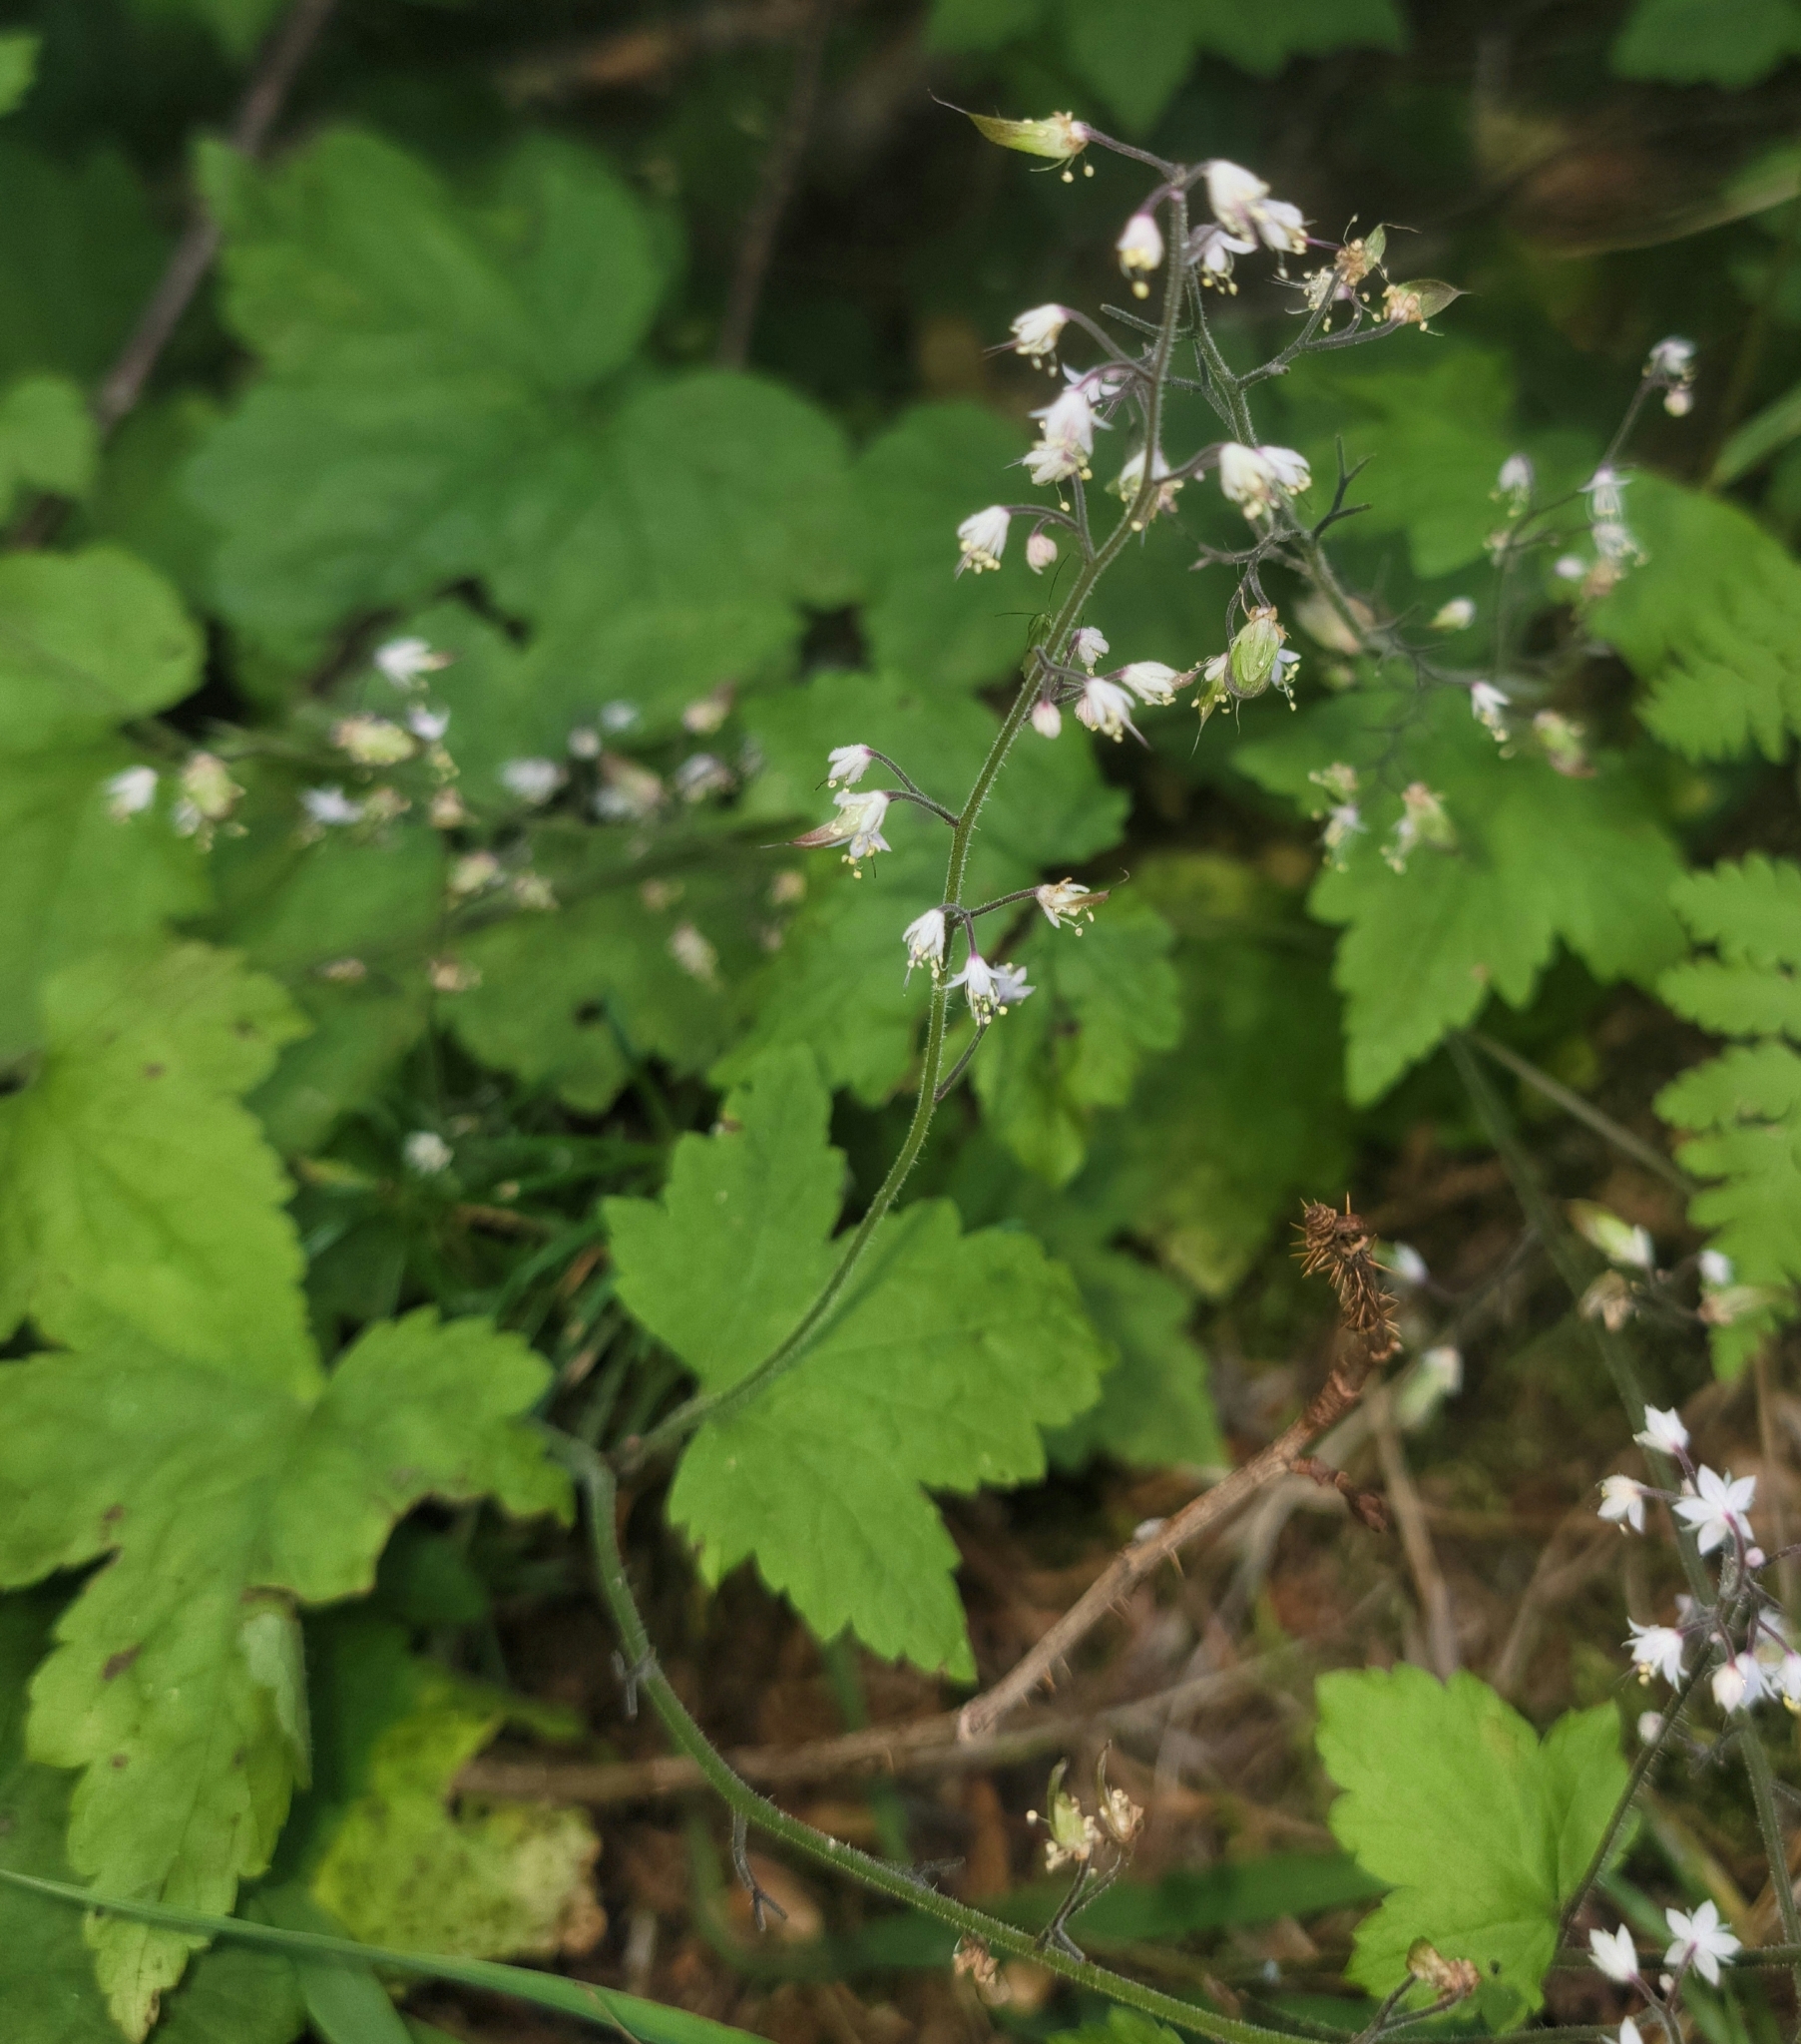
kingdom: Plantae
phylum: Tracheophyta
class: Magnoliopsida
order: Saxifragales
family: Saxifragaceae
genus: Tiarella
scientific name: Tiarella trifoliata
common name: Sugar-scoop
